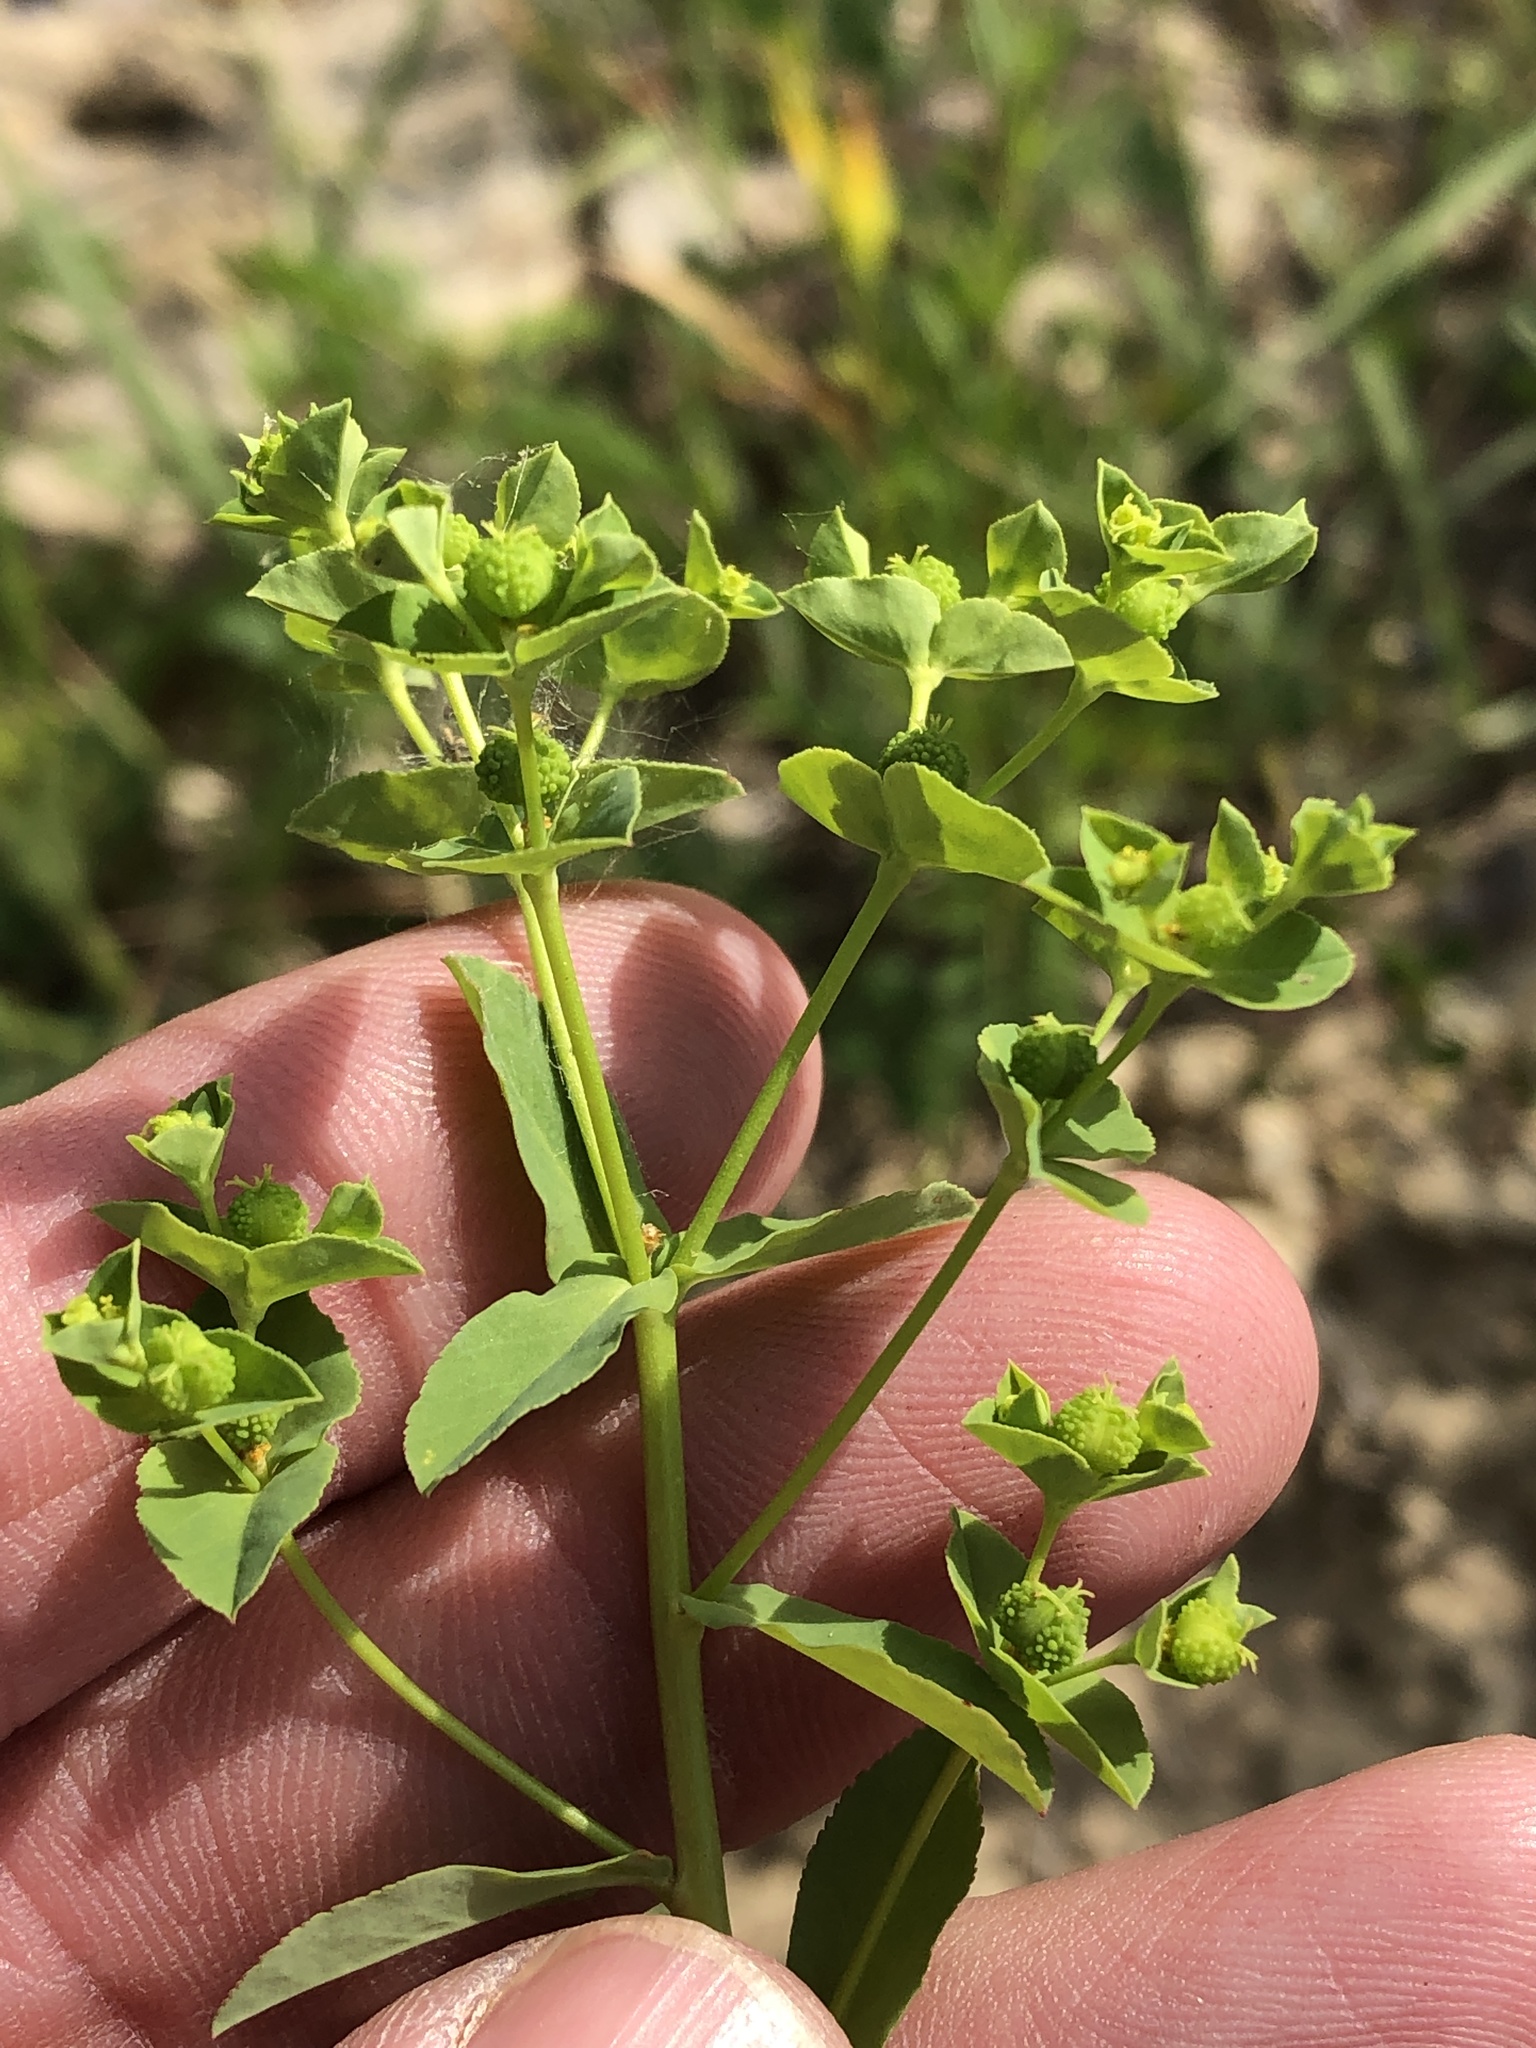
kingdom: Plantae
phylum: Tracheophyta
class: Magnoliopsida
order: Malpighiales
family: Euphorbiaceae
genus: Euphorbia
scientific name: Euphorbia spathulata
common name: Blunt spurge
